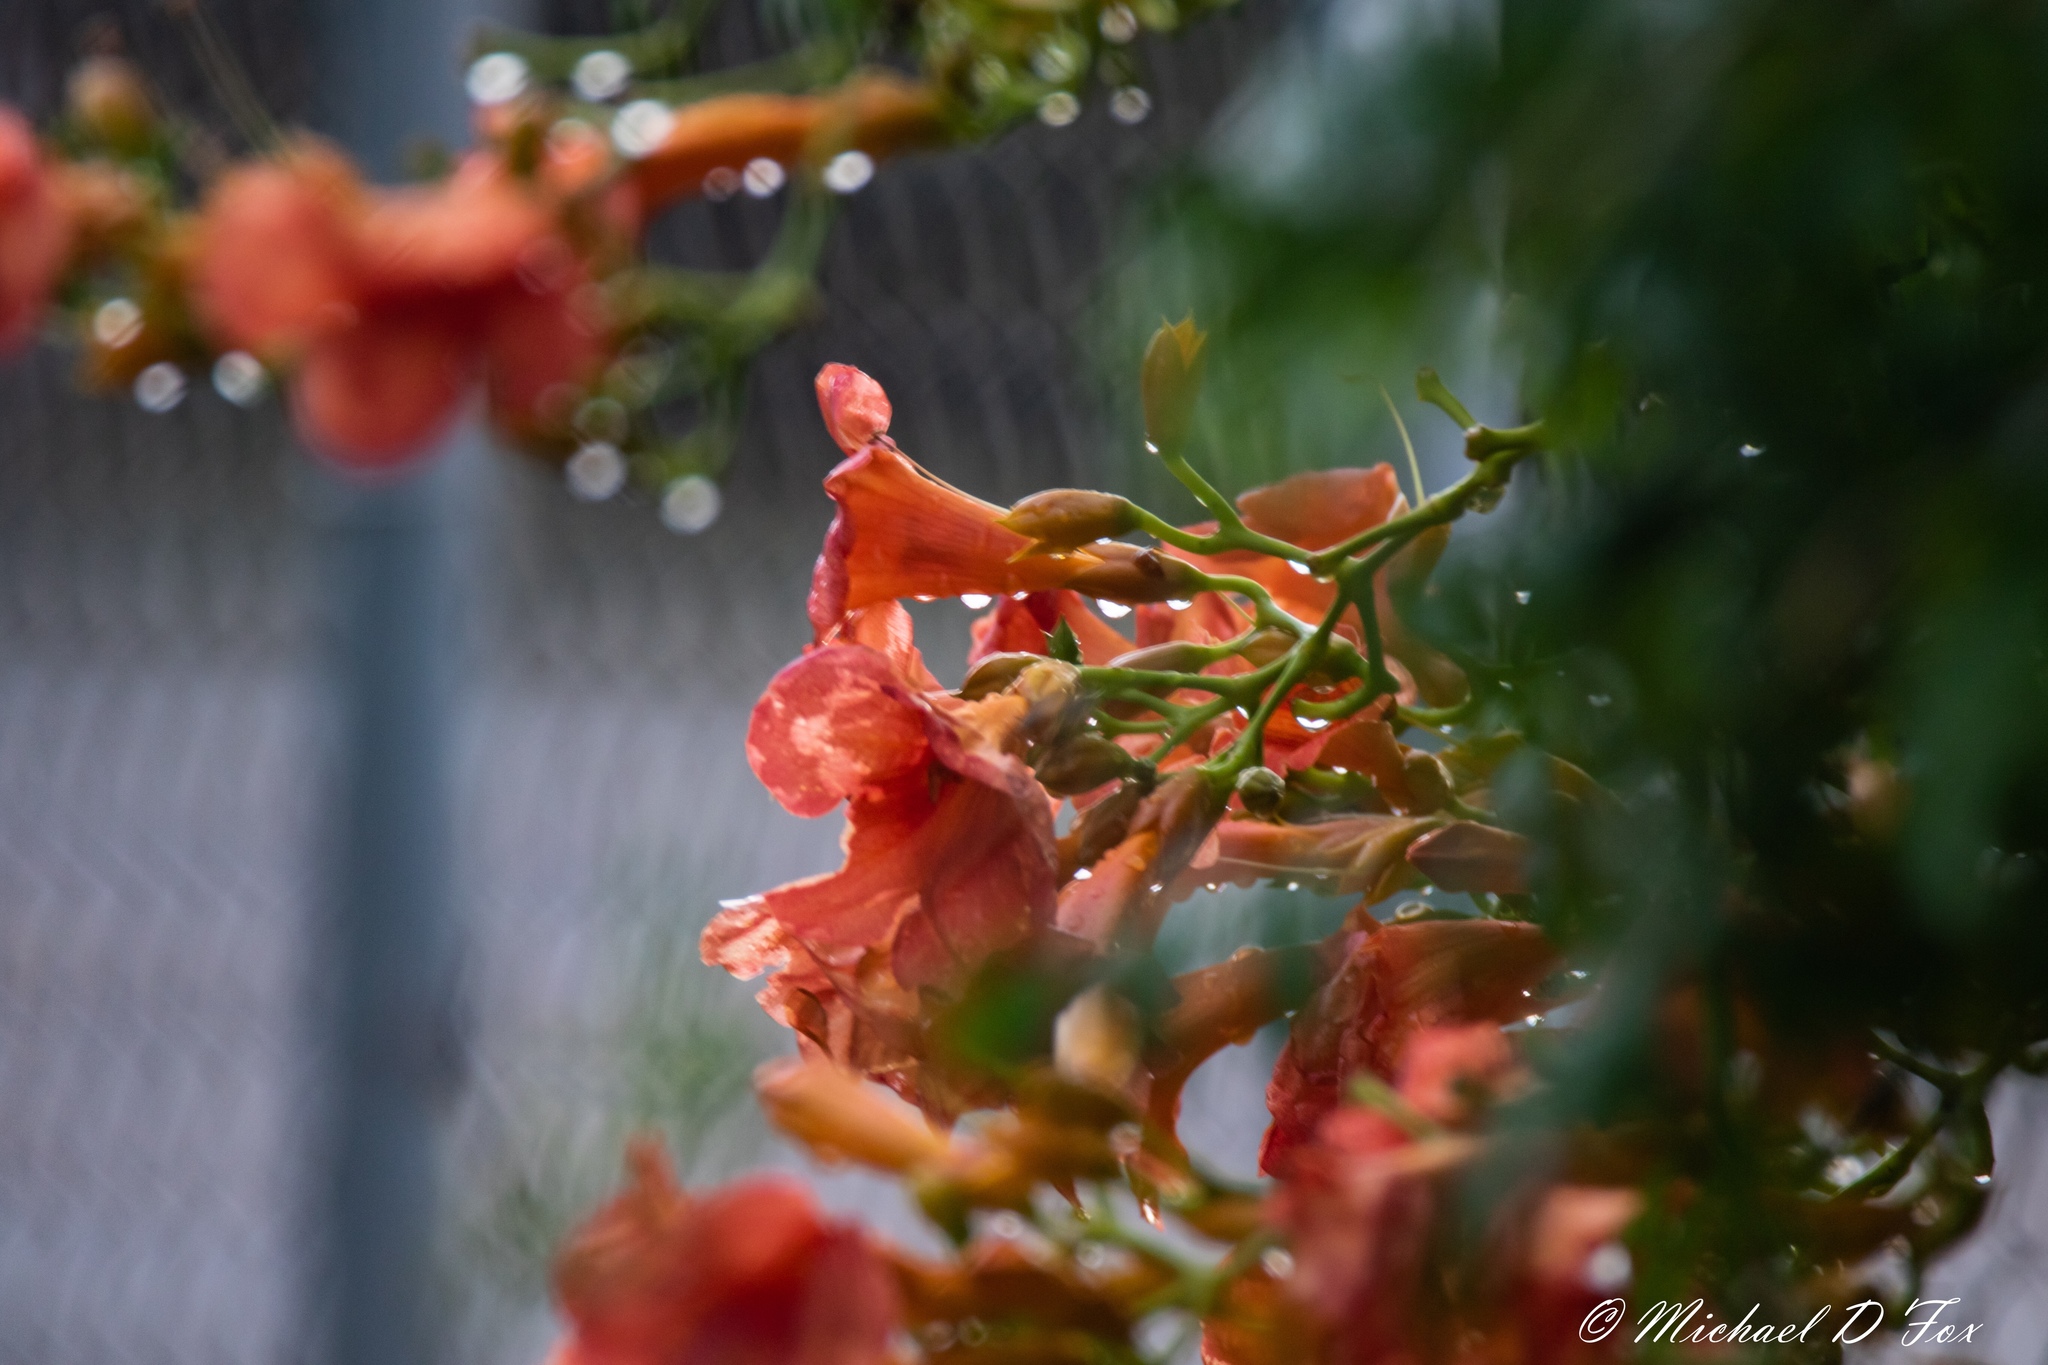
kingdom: Plantae
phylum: Tracheophyta
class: Magnoliopsida
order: Lamiales
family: Bignoniaceae
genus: Campsis
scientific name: Campsis radicans
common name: Trumpet-creeper
